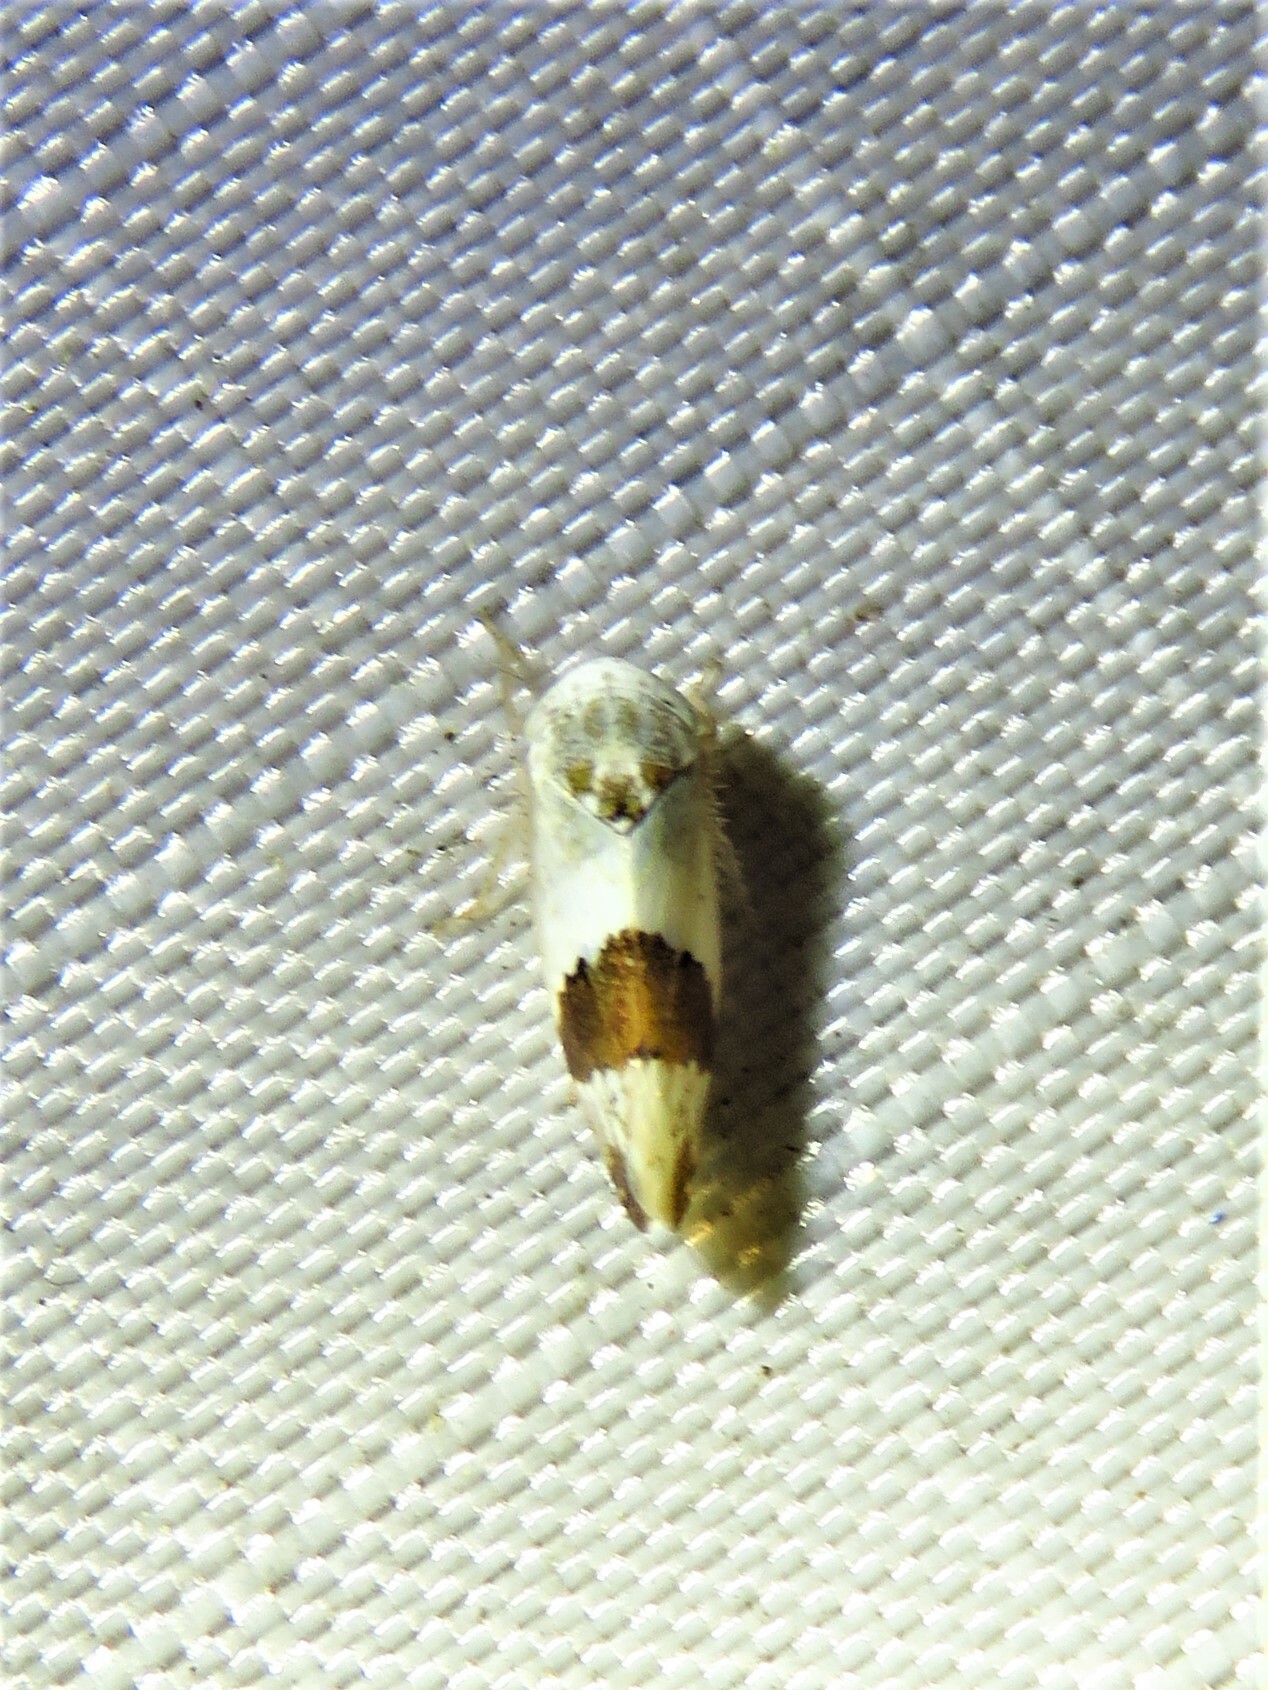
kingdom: Animalia
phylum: Arthropoda
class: Insecta
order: Hemiptera
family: Cicadellidae
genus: Norvellina
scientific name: Norvellina seminuda
